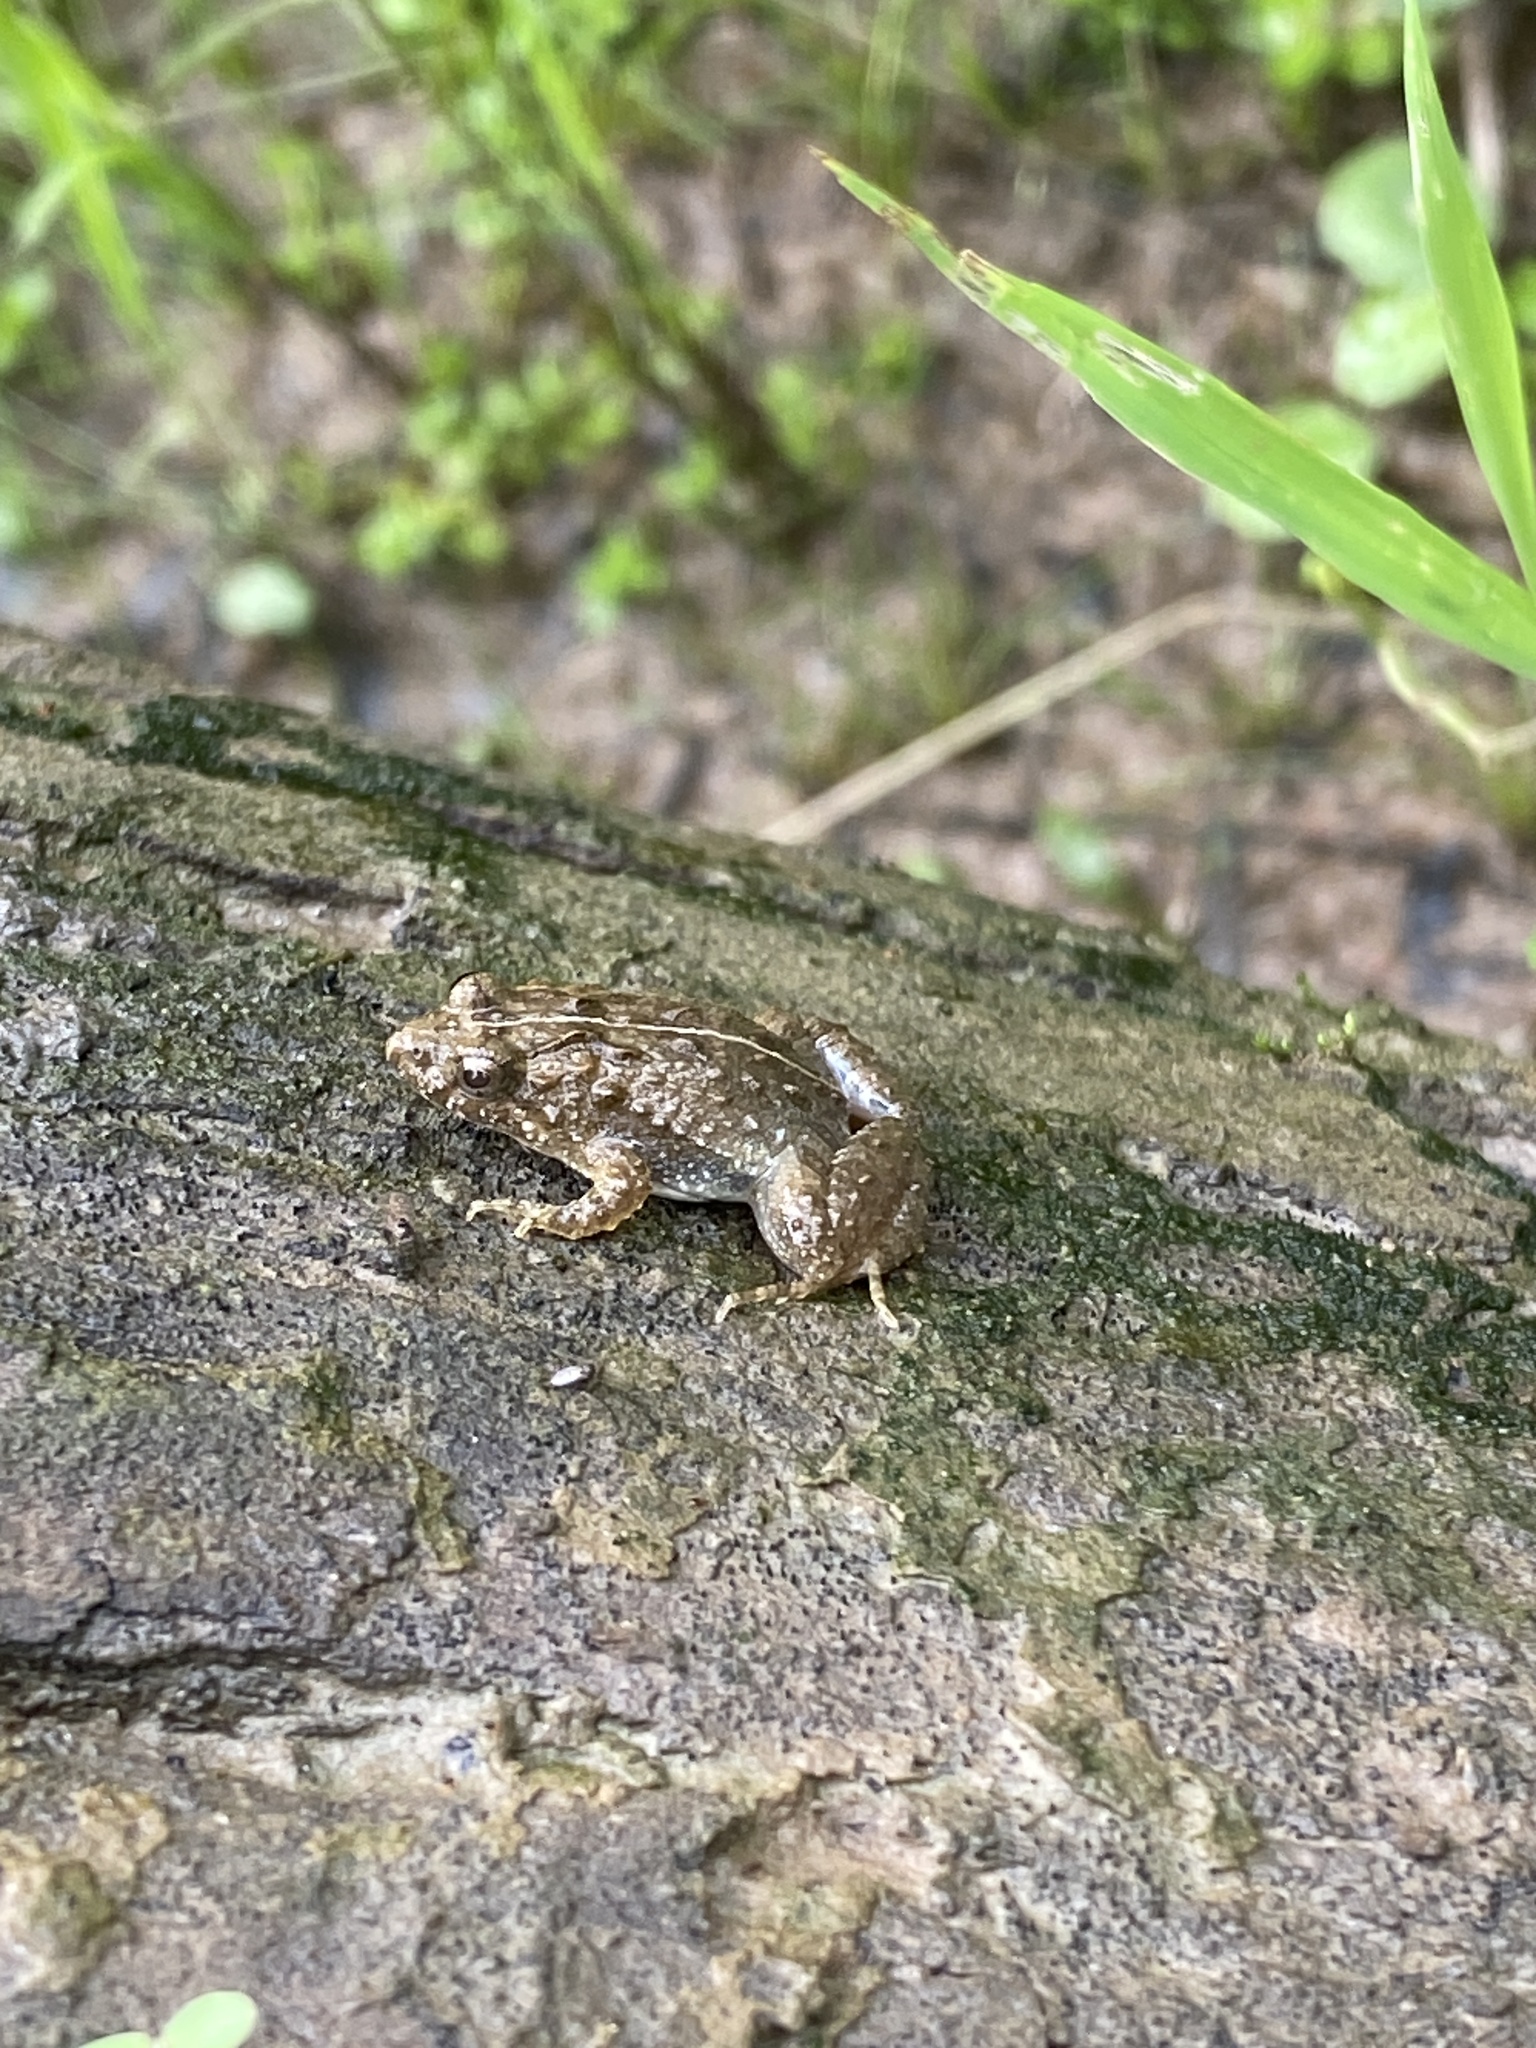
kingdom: Animalia
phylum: Chordata
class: Amphibia
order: Anura
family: Leptodactylidae
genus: Pseudopaludicola
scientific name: Pseudopaludicola falcipes
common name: Hensel’s swamp frog
